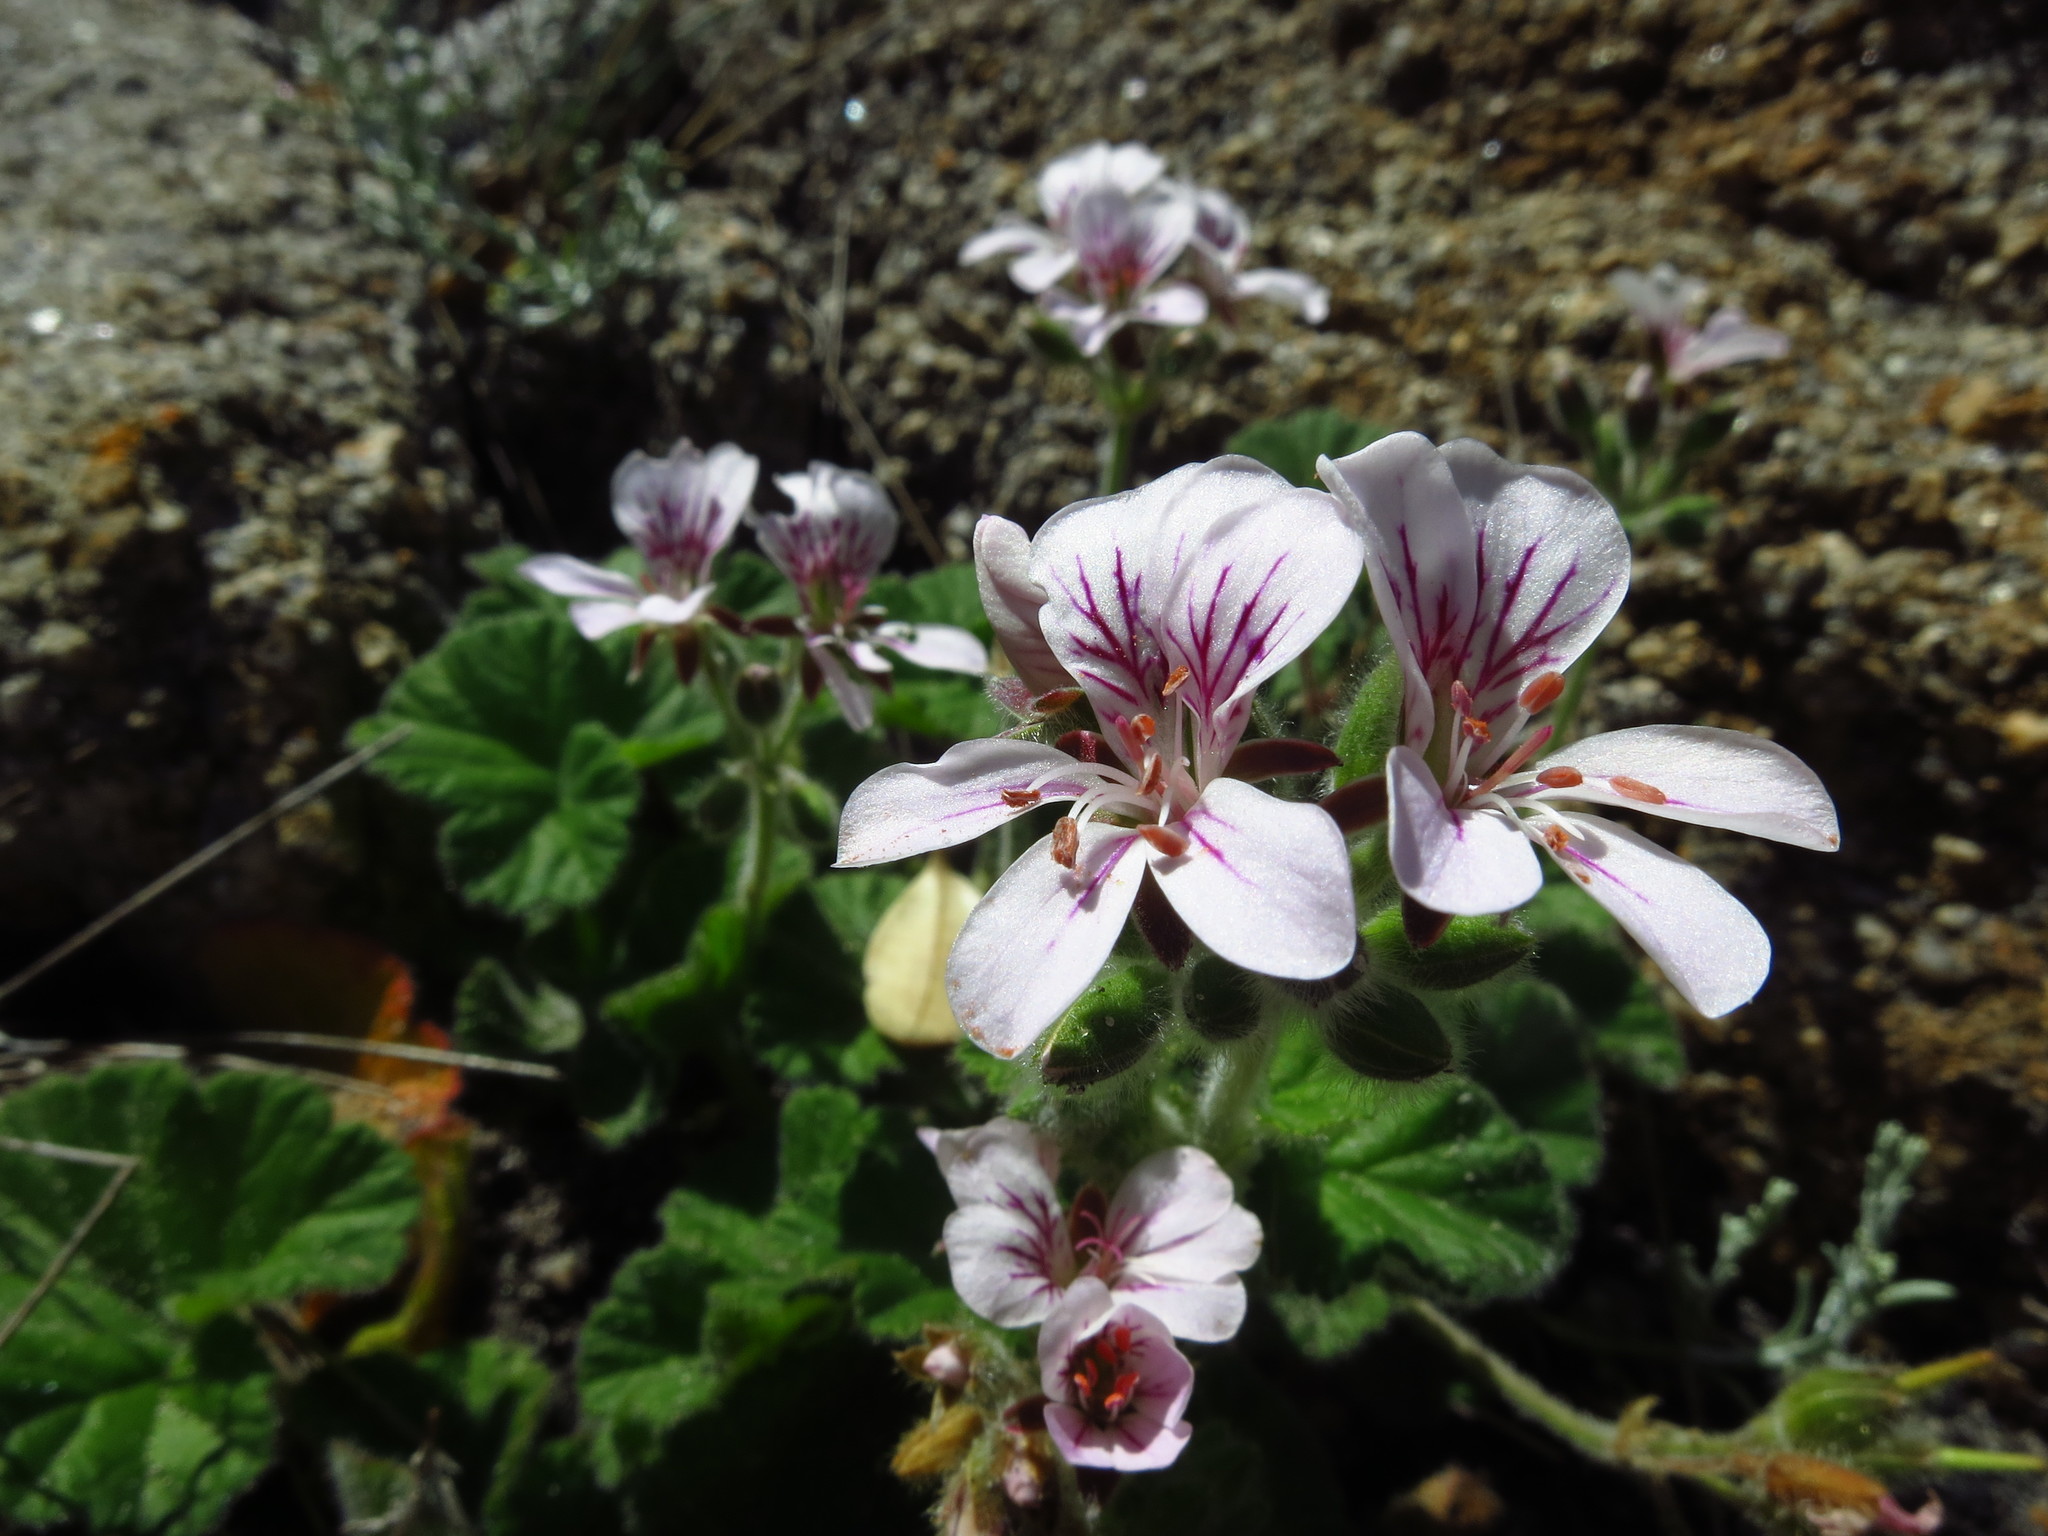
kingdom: Plantae
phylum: Tracheophyta
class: Magnoliopsida
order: Geraniales
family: Geraniaceae
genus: Pelargonium
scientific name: Pelargonium australe
